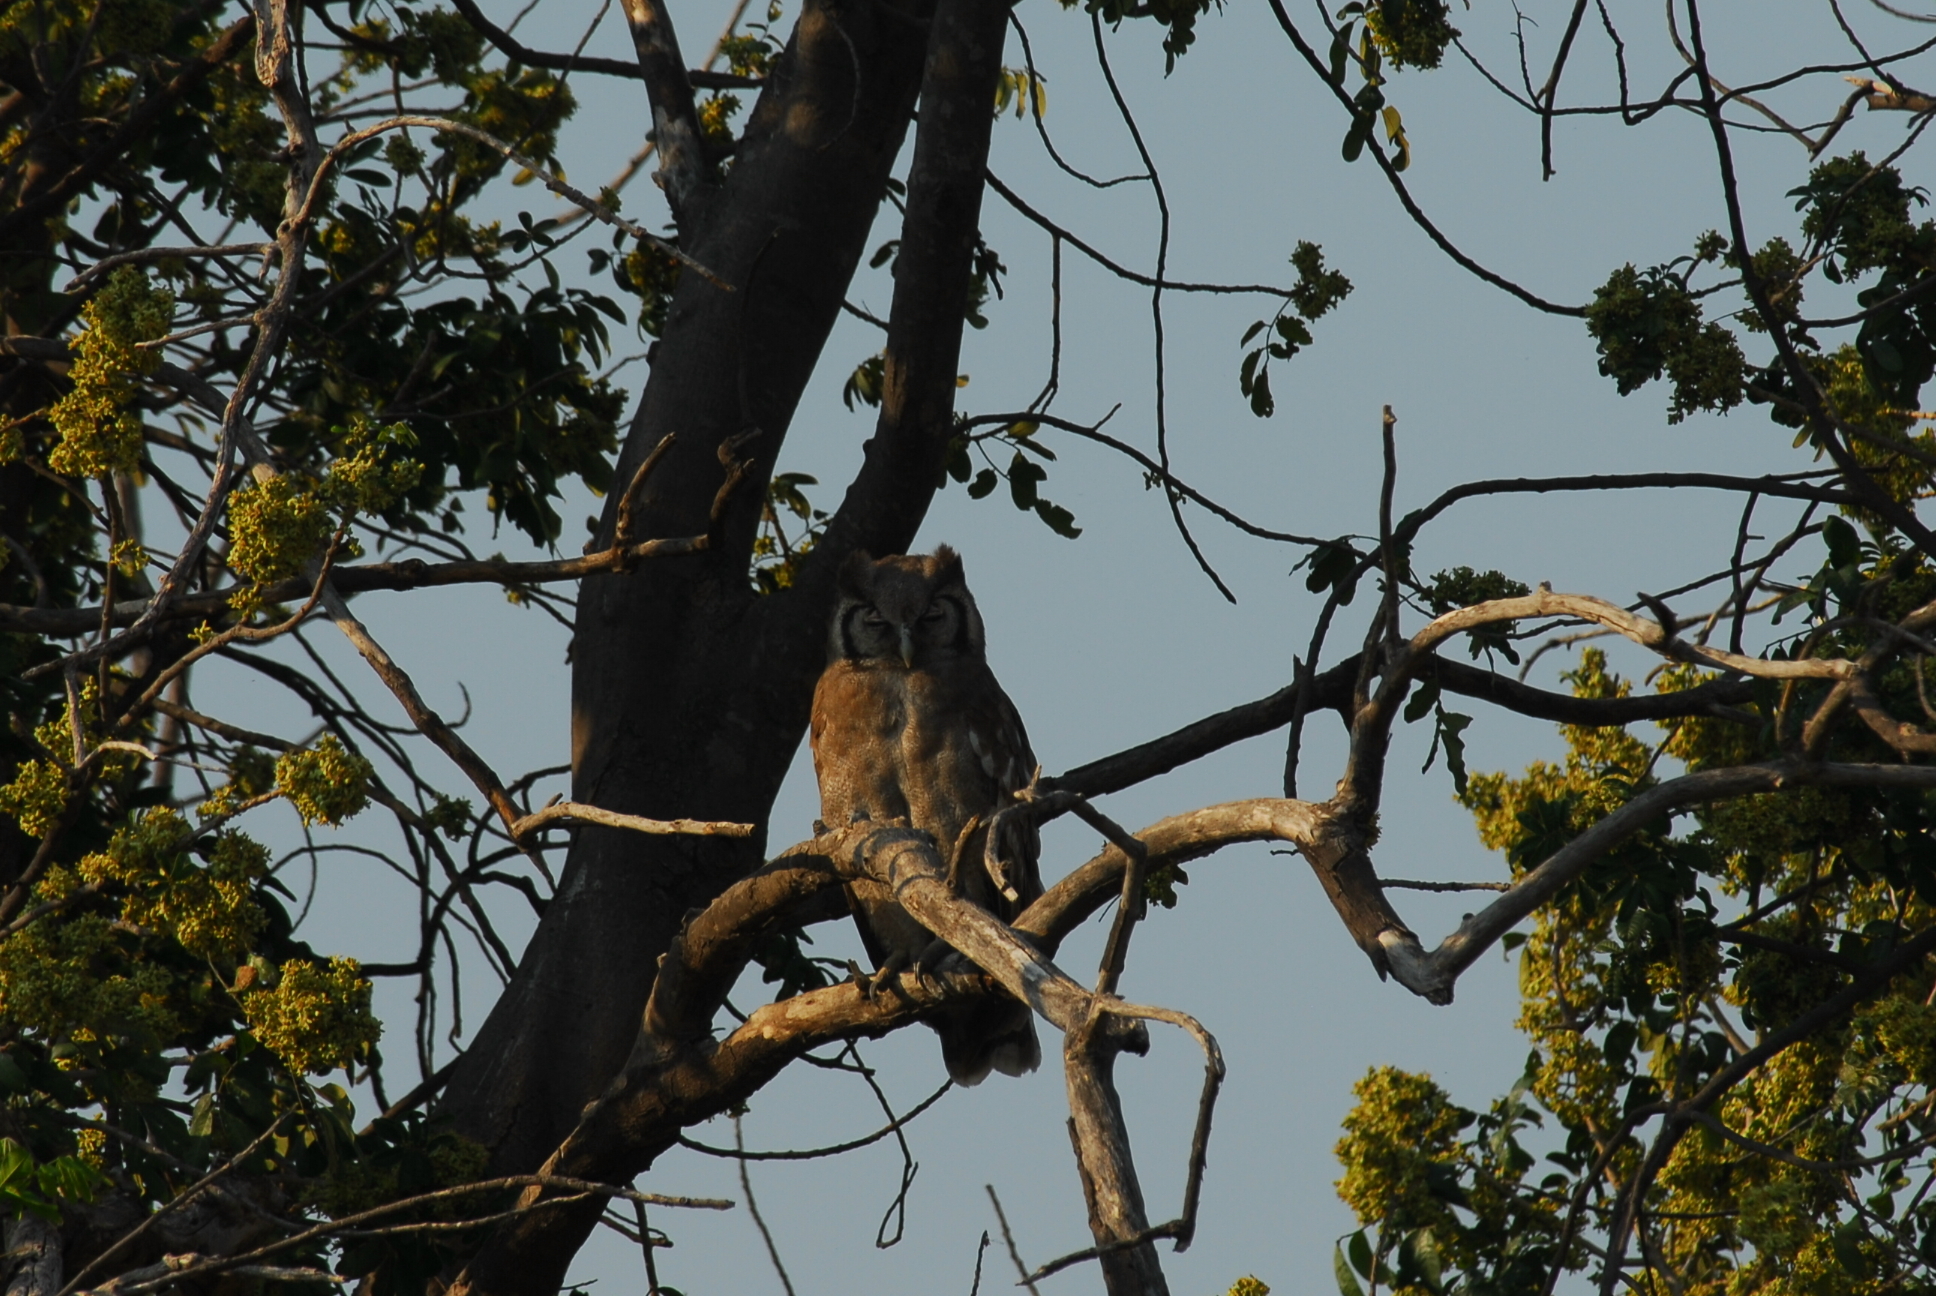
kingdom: Animalia
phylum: Chordata
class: Aves
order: Strigiformes
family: Strigidae
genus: Bubo
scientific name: Bubo lacteus
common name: Verreaux's eagle-owl
